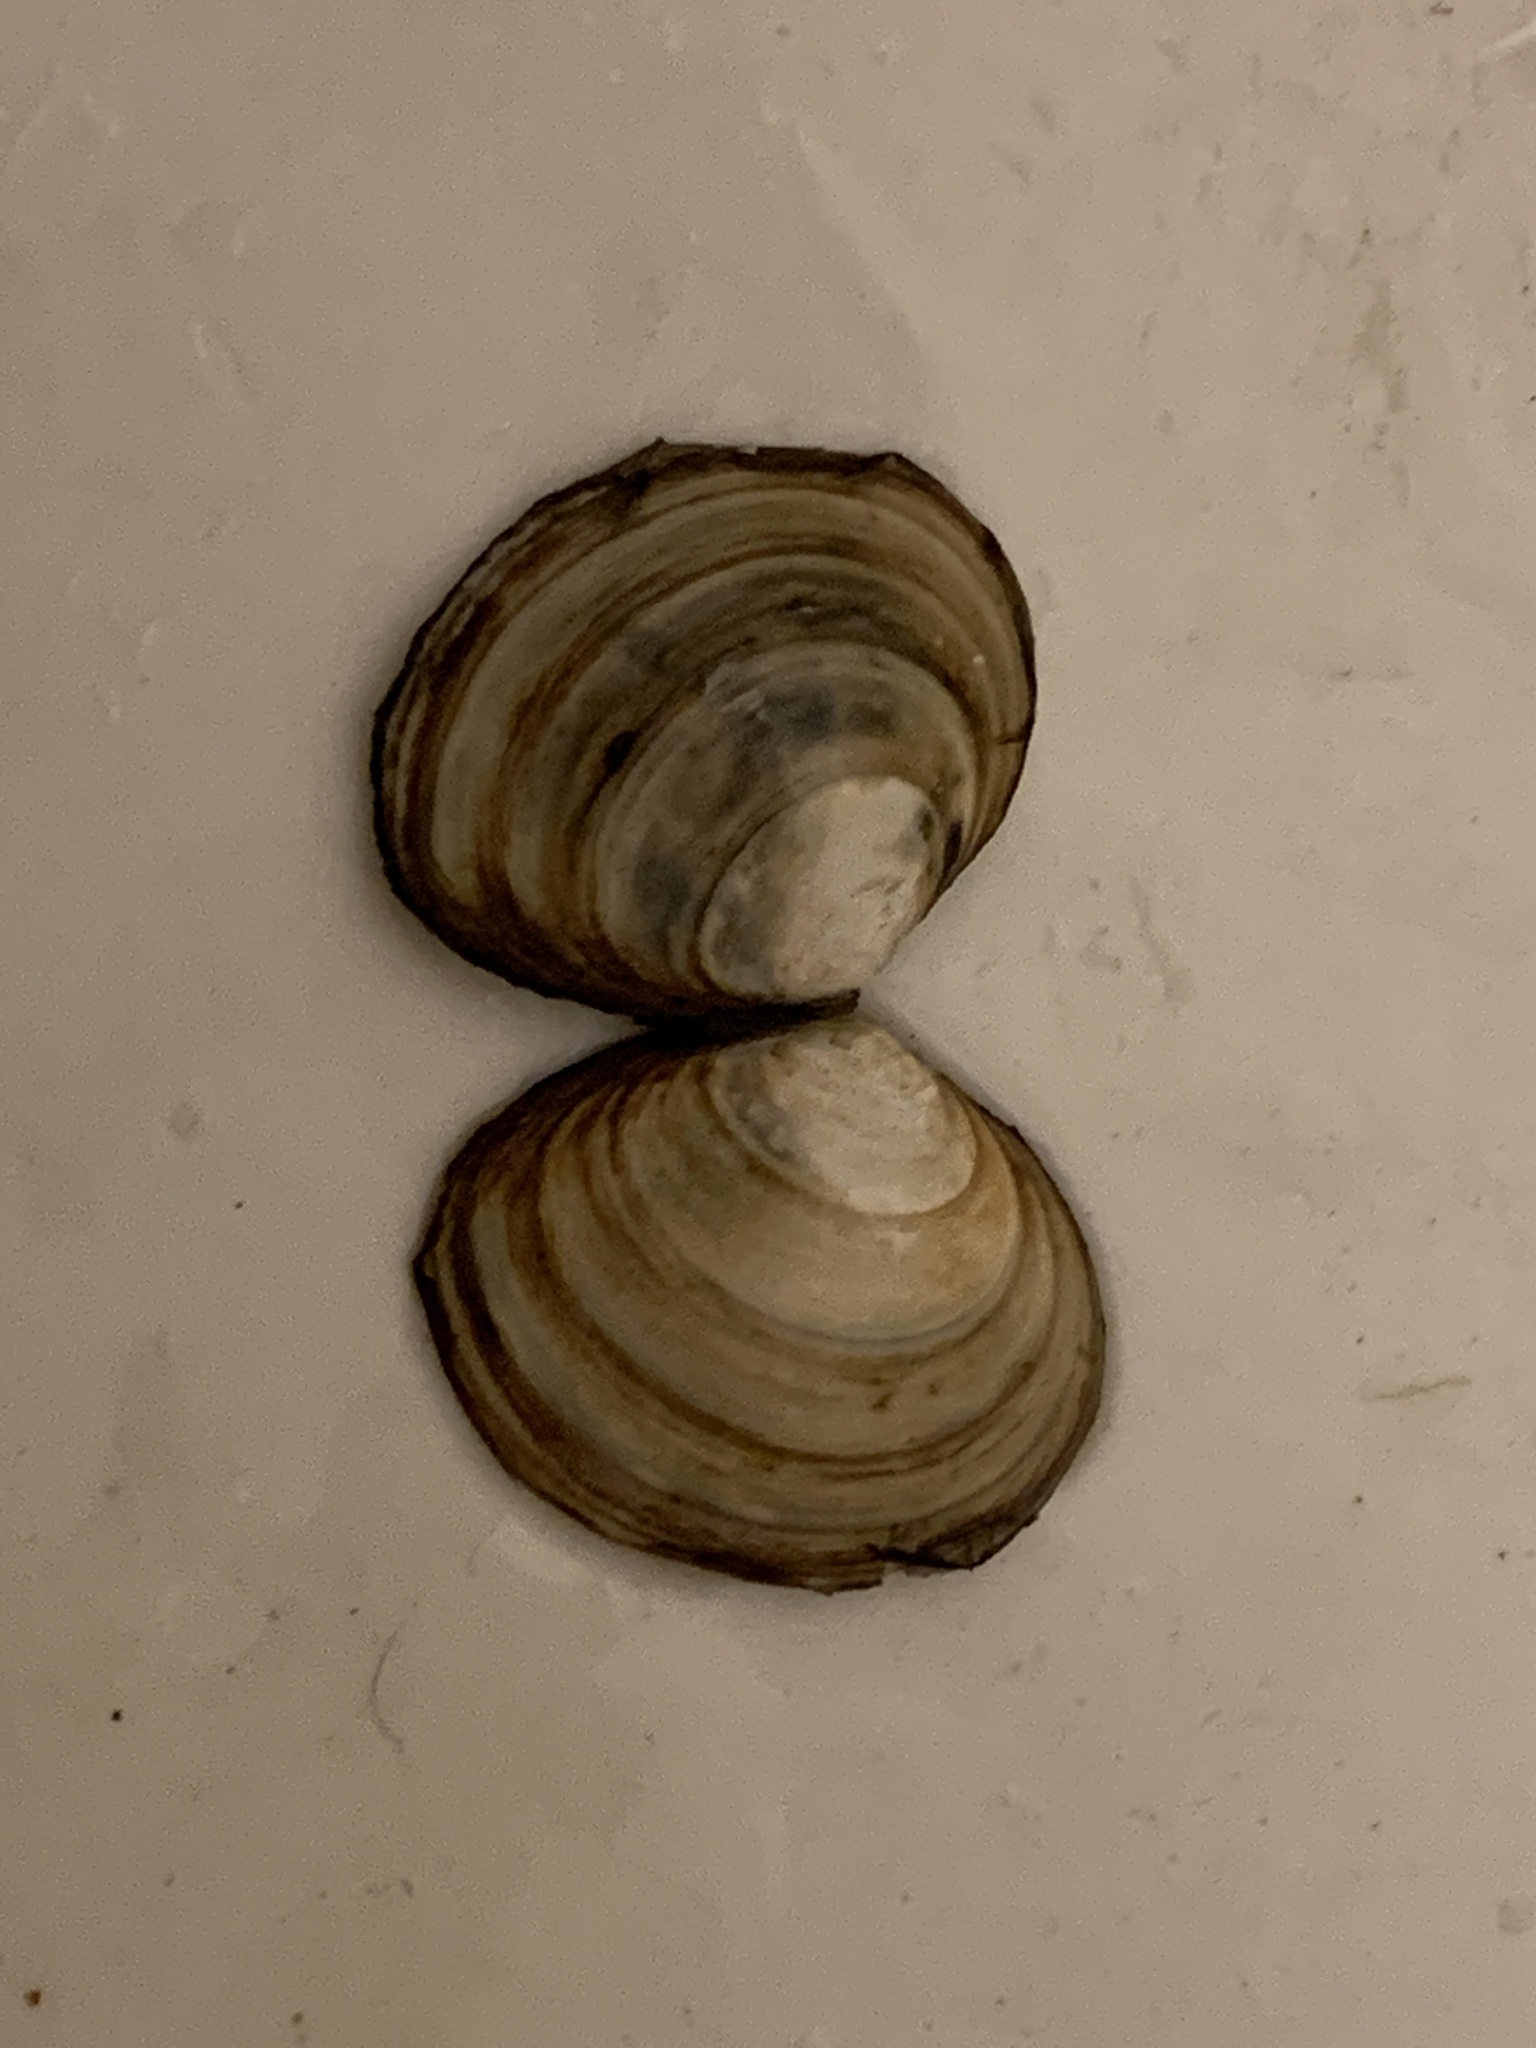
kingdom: Animalia
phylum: Mollusca
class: Bivalvia
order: Cardiida
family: Tellinidae
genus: Macoma
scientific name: Macoma petalum
